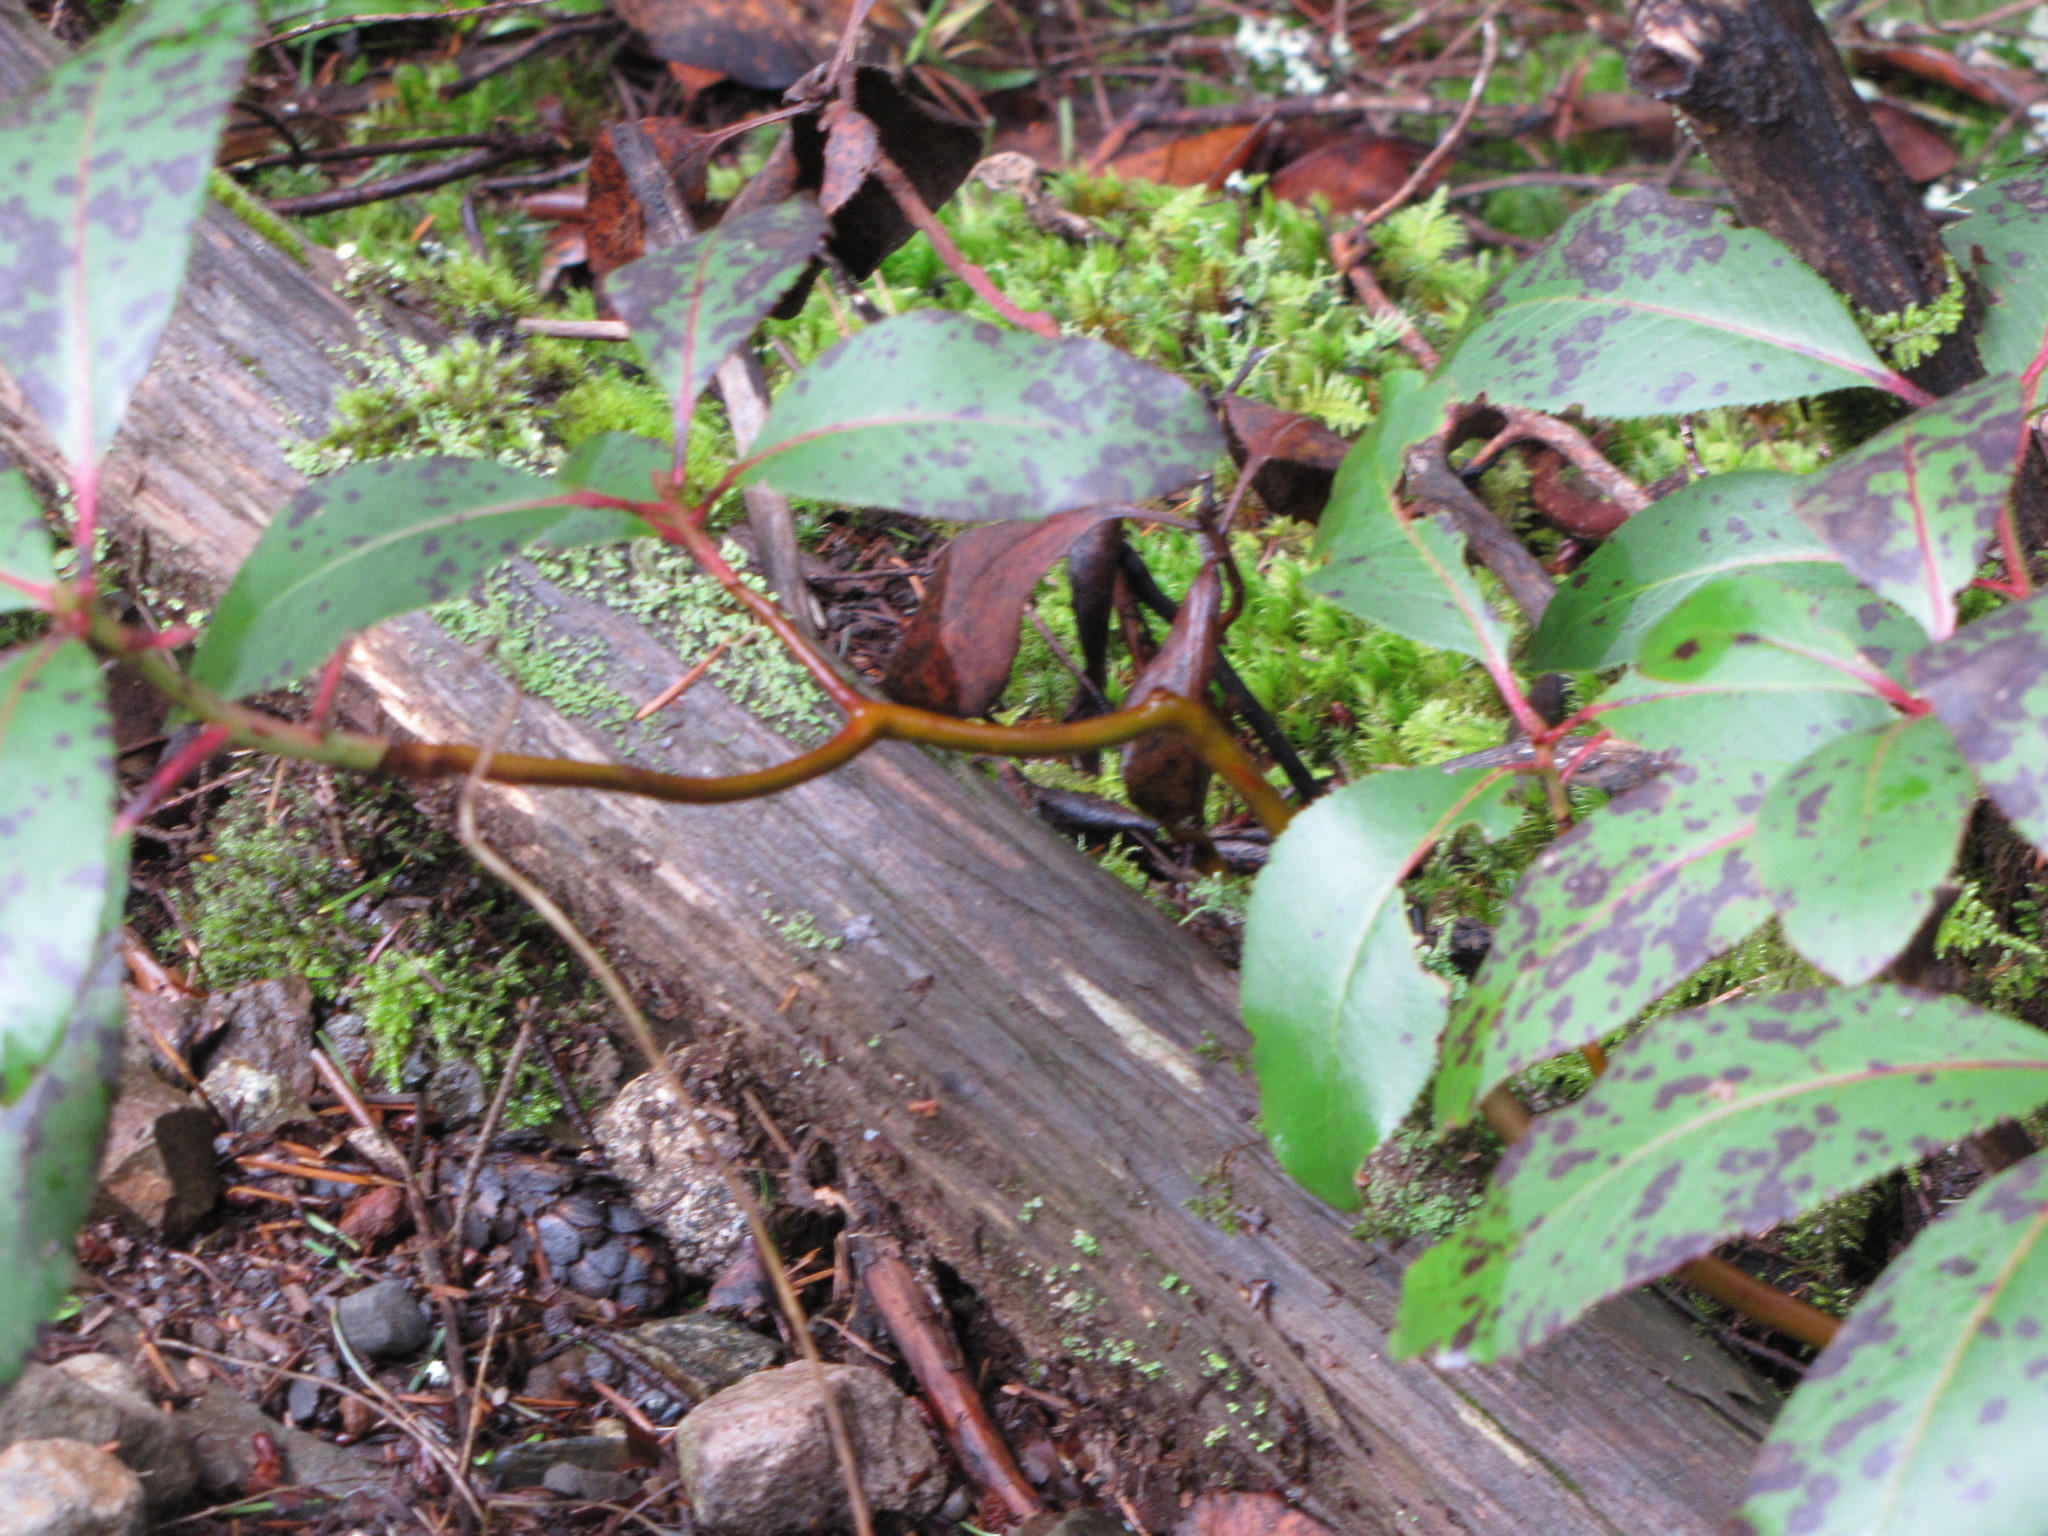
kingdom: Plantae
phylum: Tracheophyta
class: Magnoliopsida
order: Ericales
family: Ericaceae
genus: Arbutus
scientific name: Arbutus menziesii
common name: Pacific madrone
